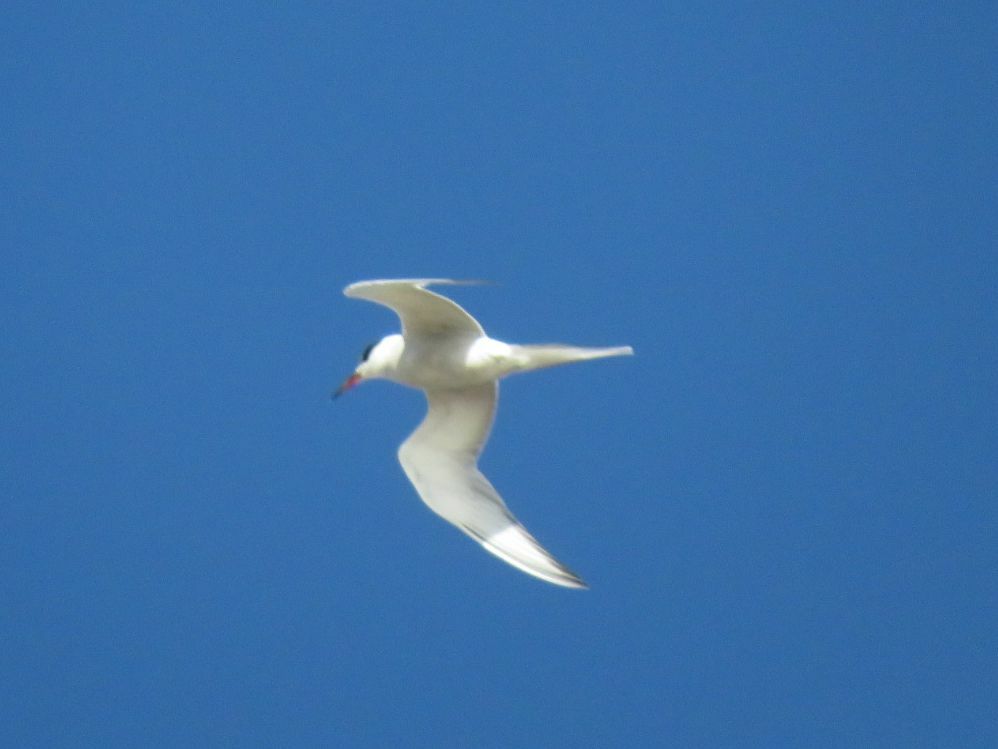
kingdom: Animalia
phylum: Chordata
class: Aves
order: Charadriiformes
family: Laridae
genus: Sterna
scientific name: Sterna hirundinacea
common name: South american tern
